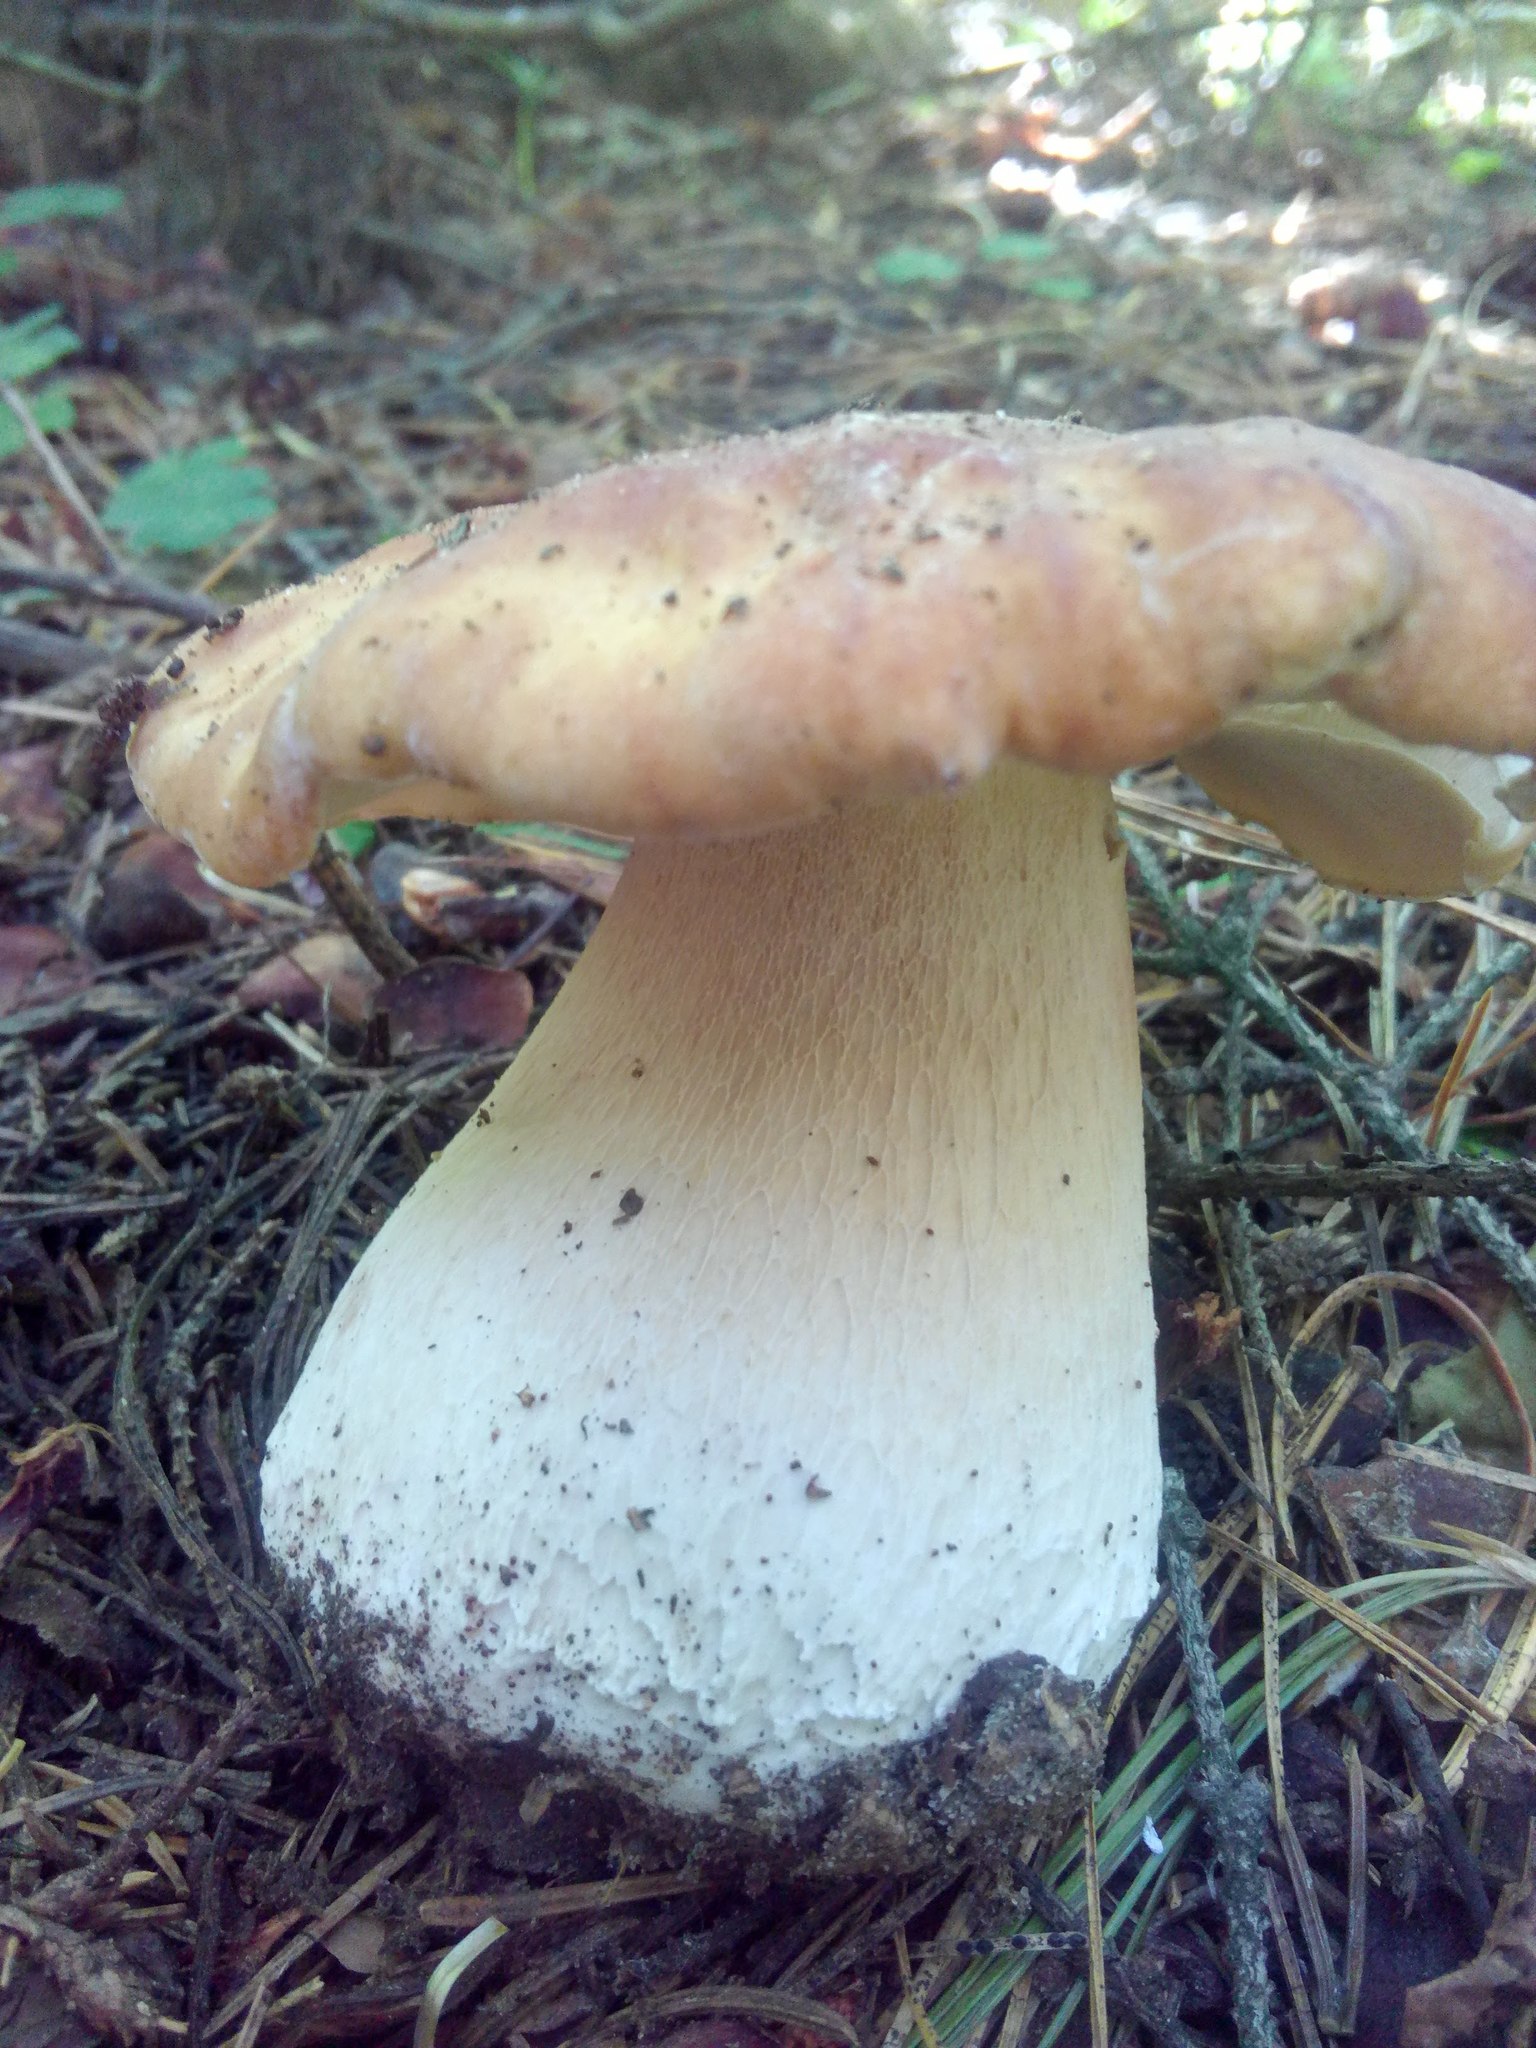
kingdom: Fungi
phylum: Basidiomycota
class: Agaricomycetes
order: Boletales
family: Boletaceae
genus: Boletus
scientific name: Boletus edulis
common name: Cep
